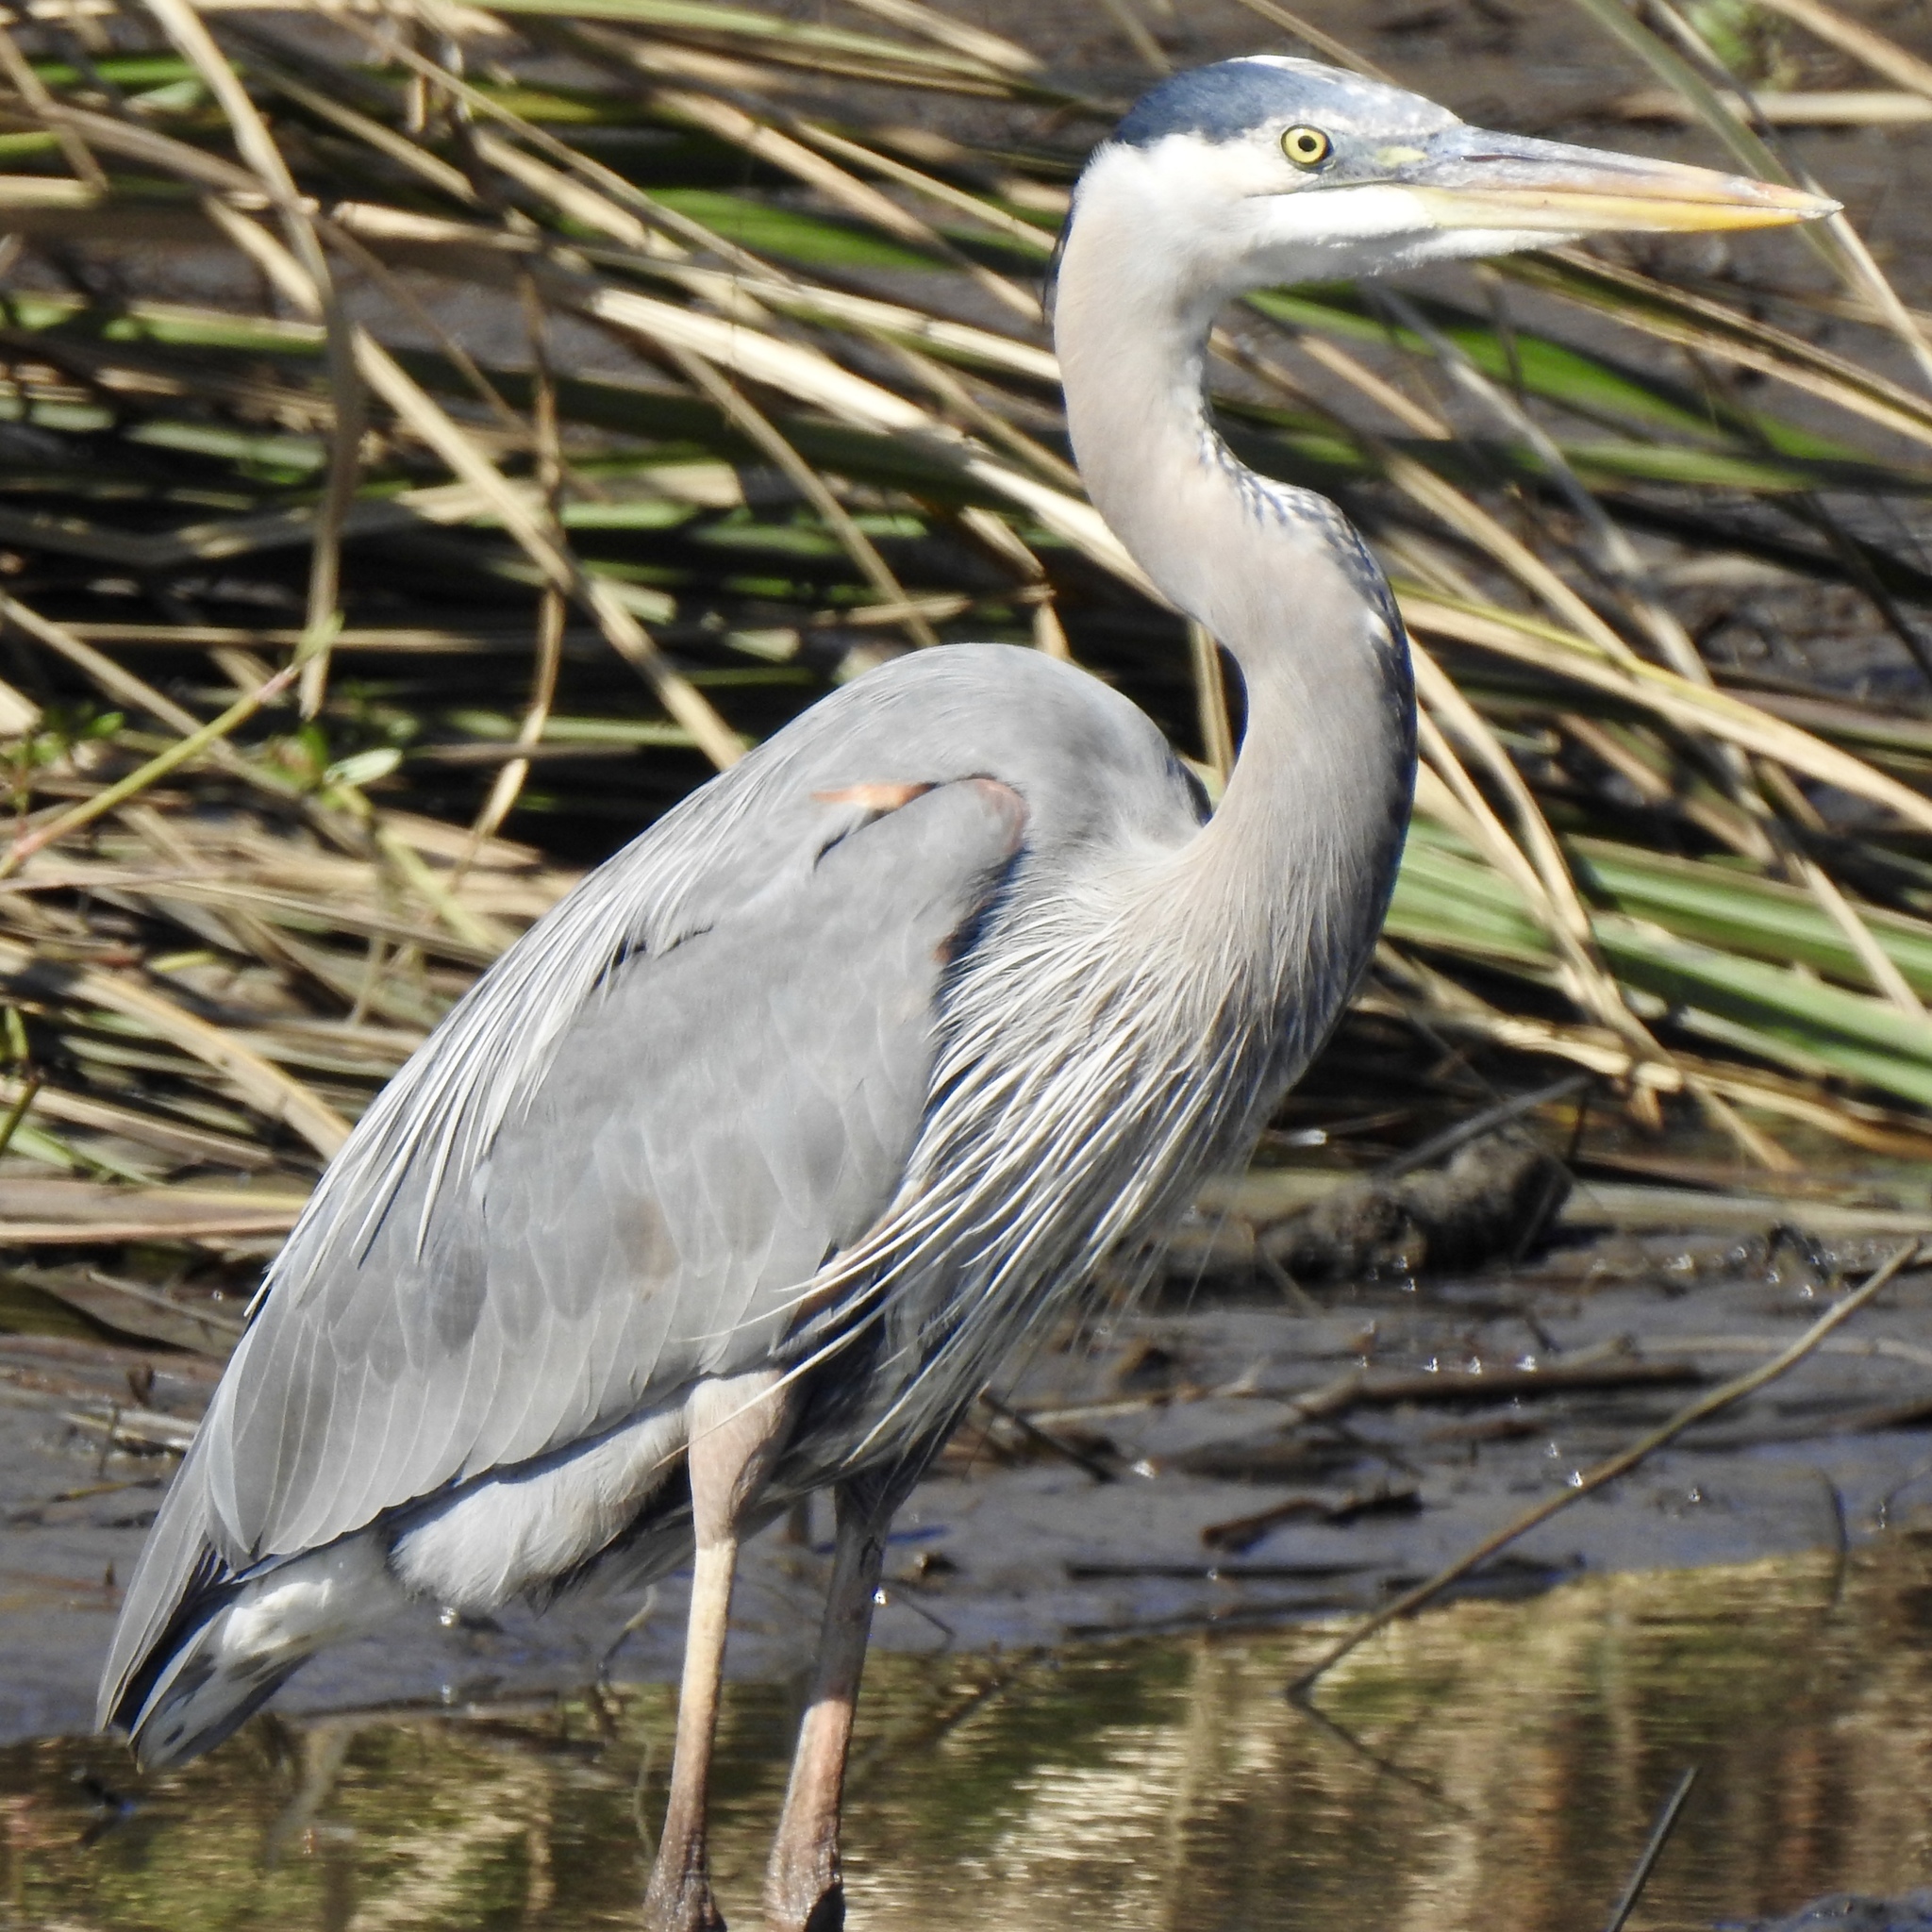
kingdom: Animalia
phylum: Chordata
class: Aves
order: Pelecaniformes
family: Ardeidae
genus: Ardea
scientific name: Ardea herodias
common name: Great blue heron
